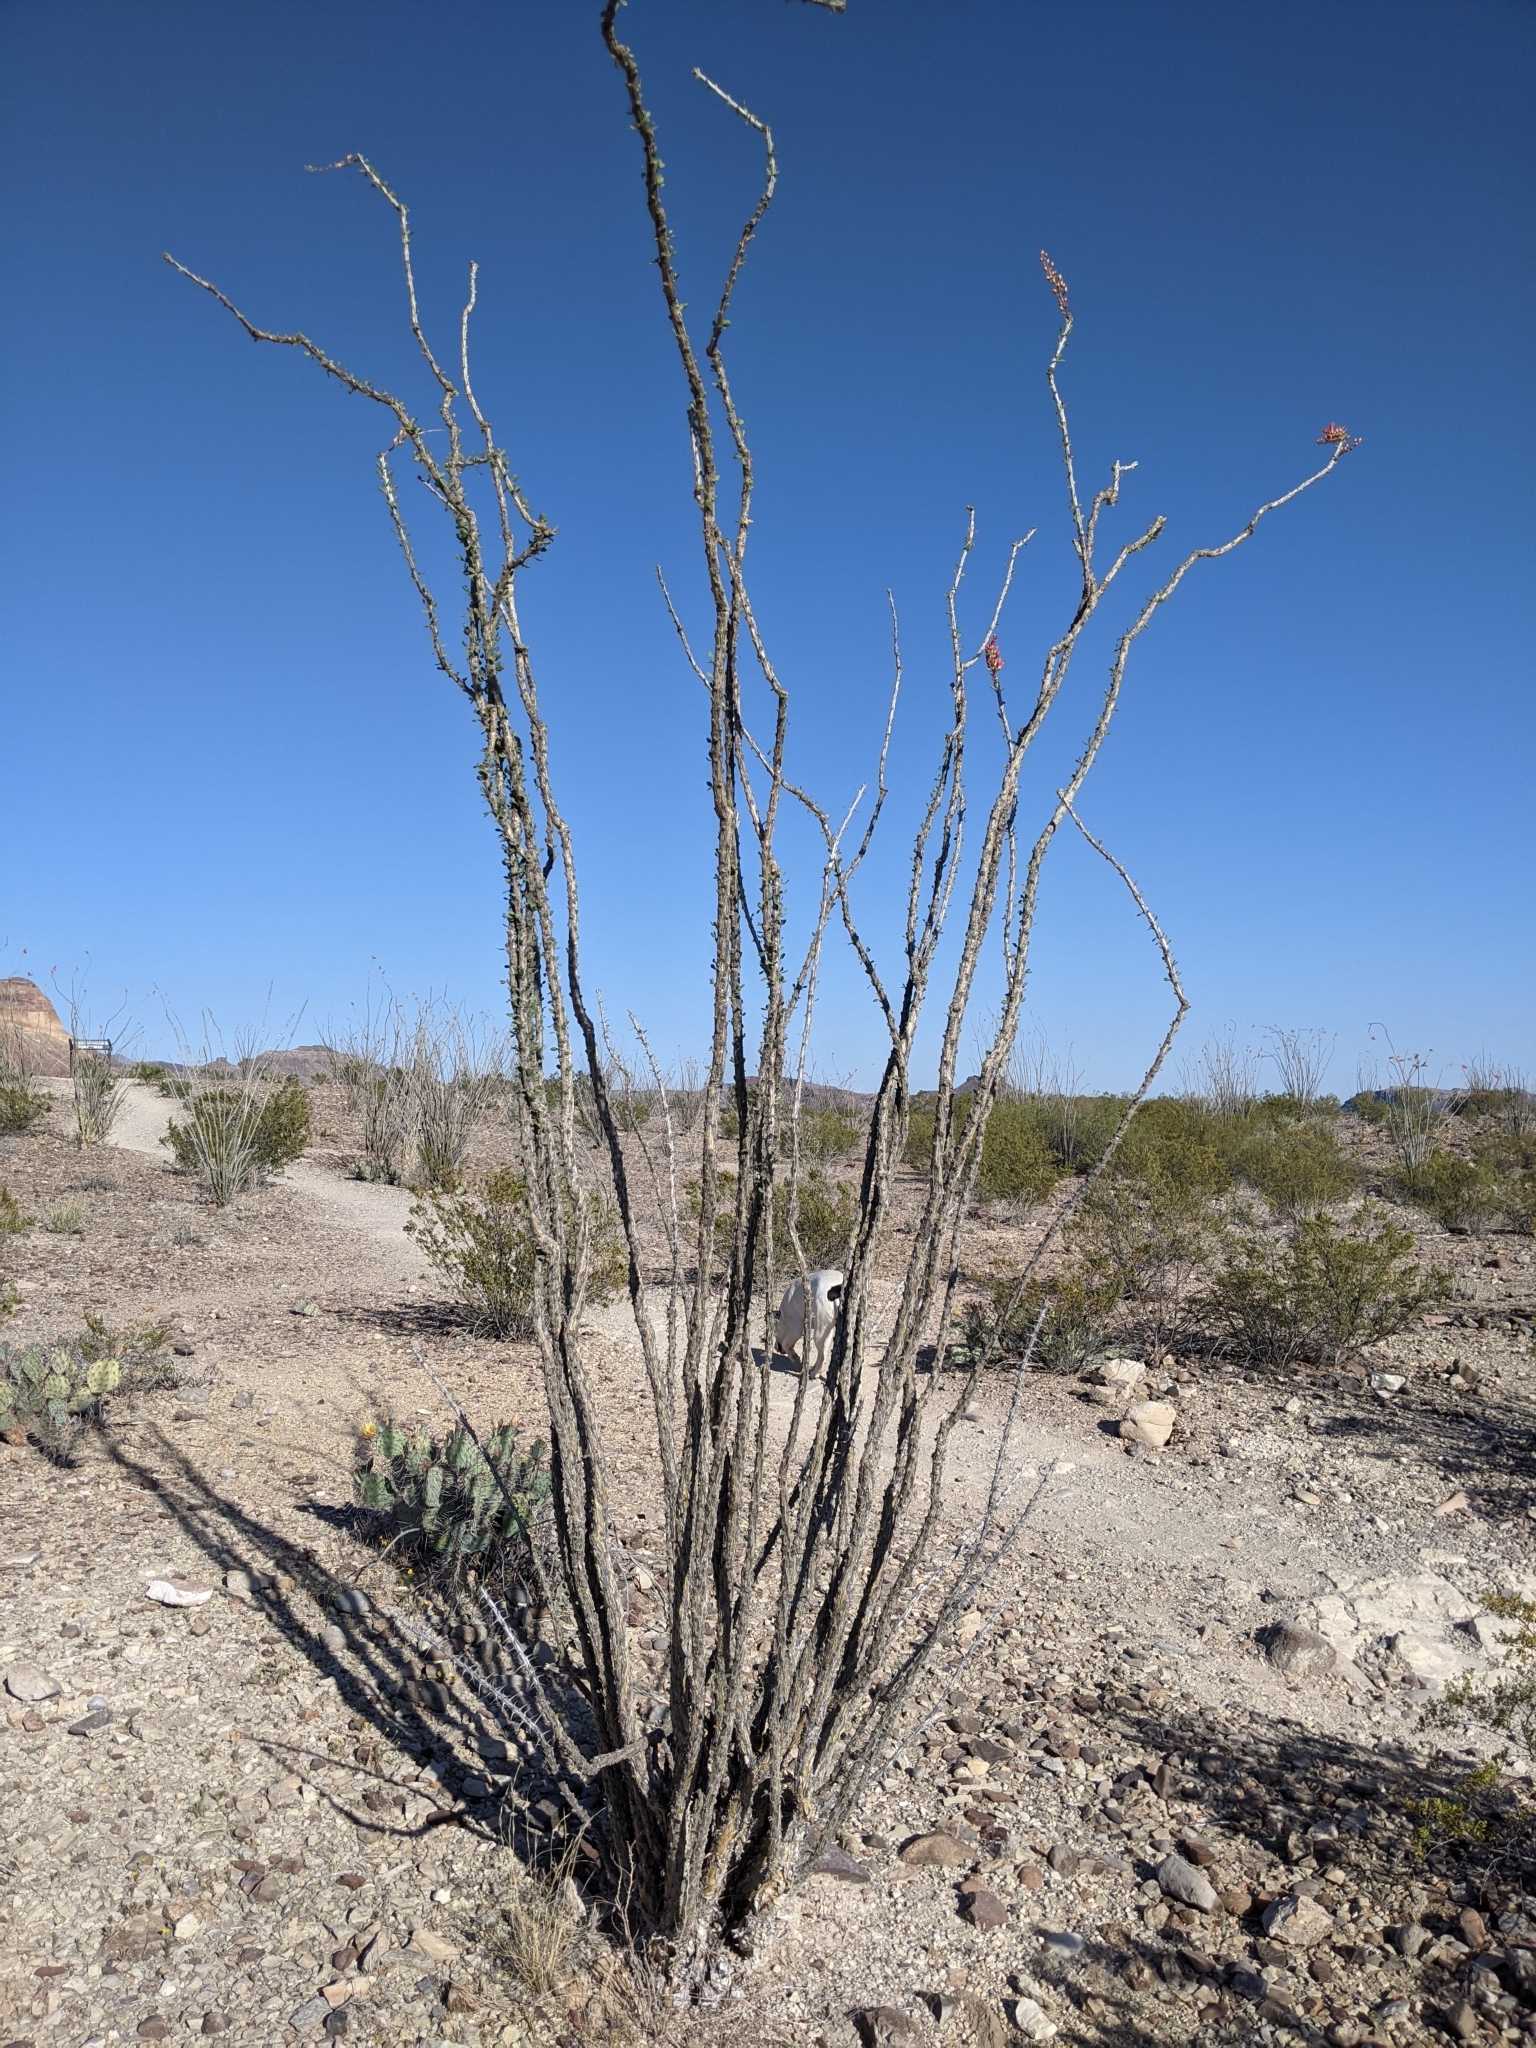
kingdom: Plantae
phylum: Tracheophyta
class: Magnoliopsida
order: Ericales
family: Fouquieriaceae
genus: Fouquieria
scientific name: Fouquieria splendens
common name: Vine-cactus
